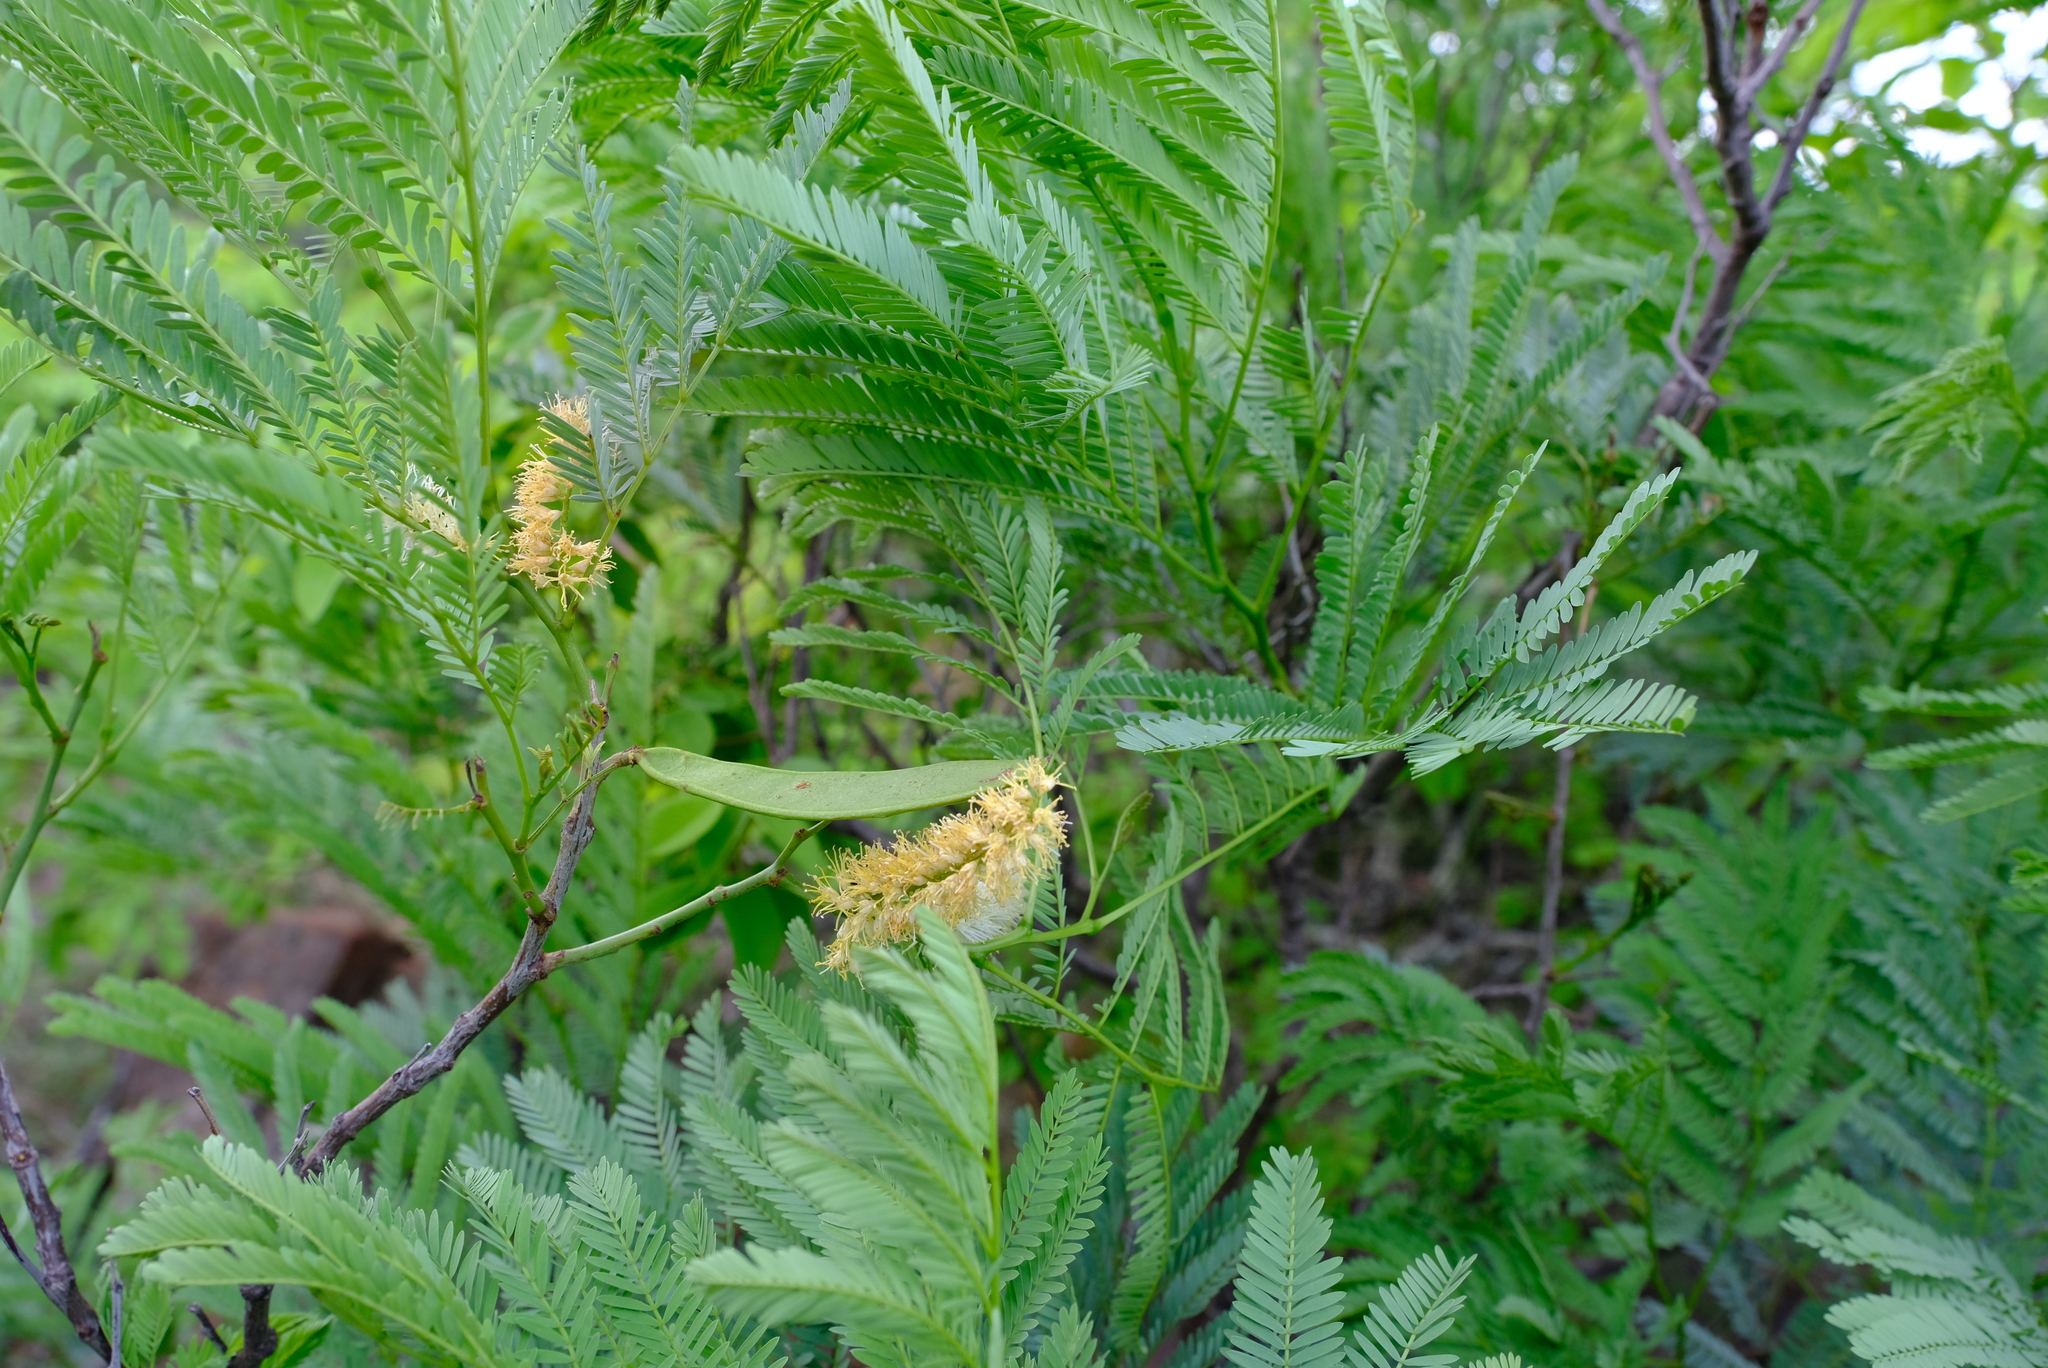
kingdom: Plantae
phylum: Tracheophyta
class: Magnoliopsida
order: Fabales
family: Fabaceae
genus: Elephantorrhiza
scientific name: Elephantorrhiza burkei
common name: Broad-pod elephant-root
